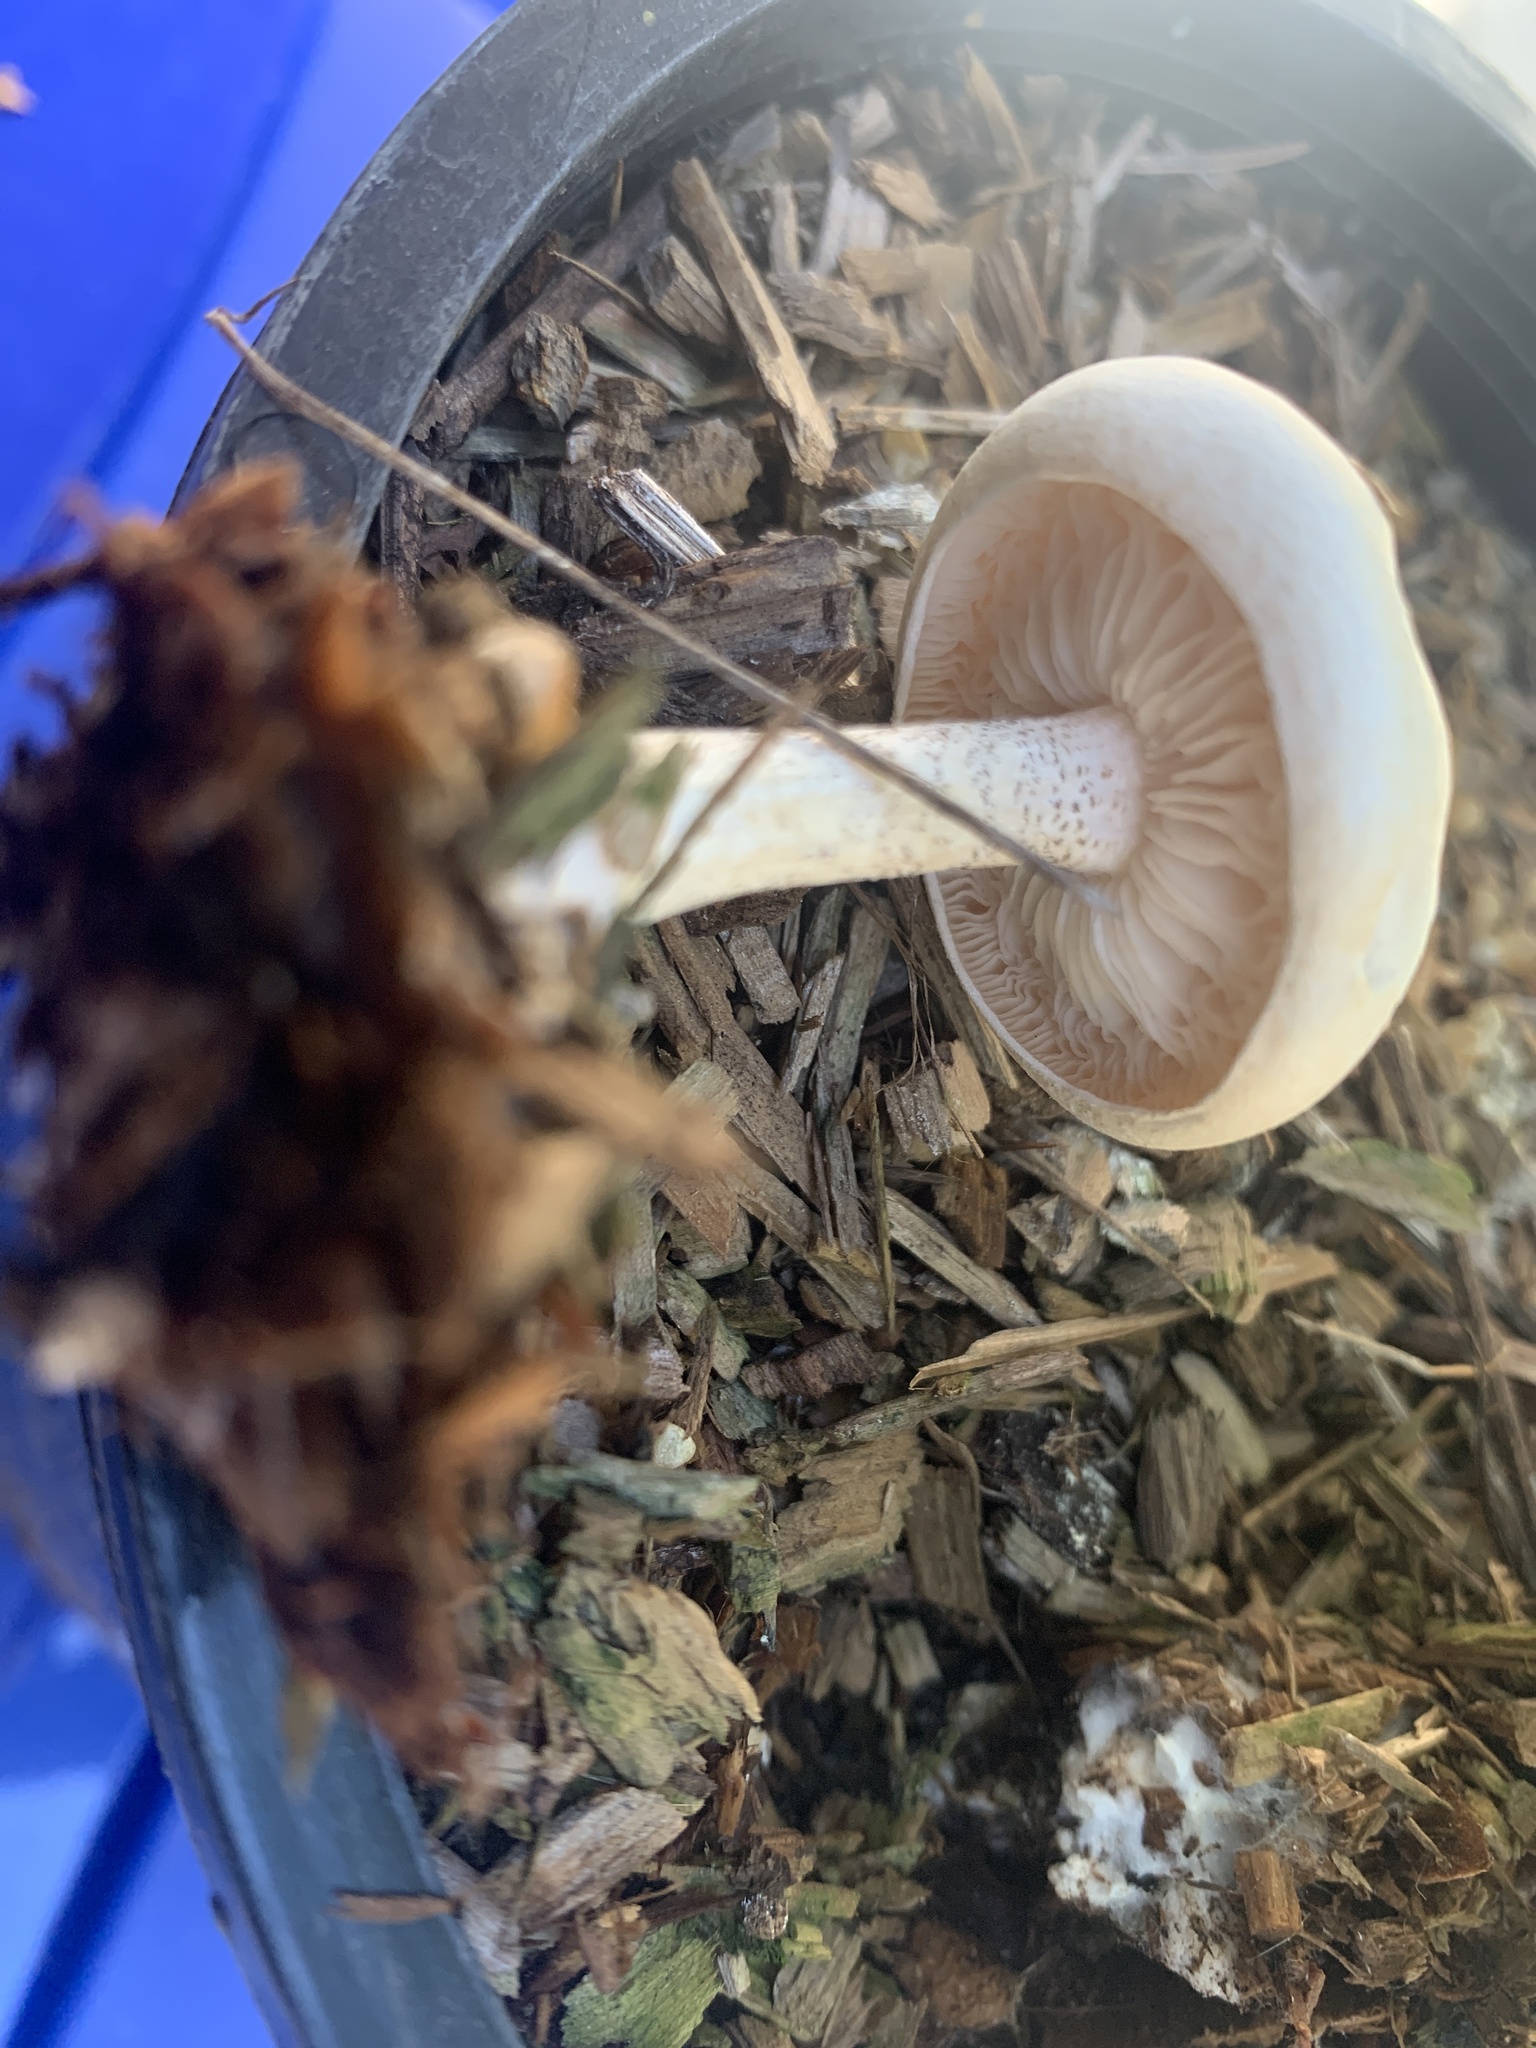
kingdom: Fungi
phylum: Basidiomycota
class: Agaricomycetes
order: Agaricales
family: Tricholomataceae
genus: Melanoleuca
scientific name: Melanoleuca verrucipes
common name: Warty cavalier
